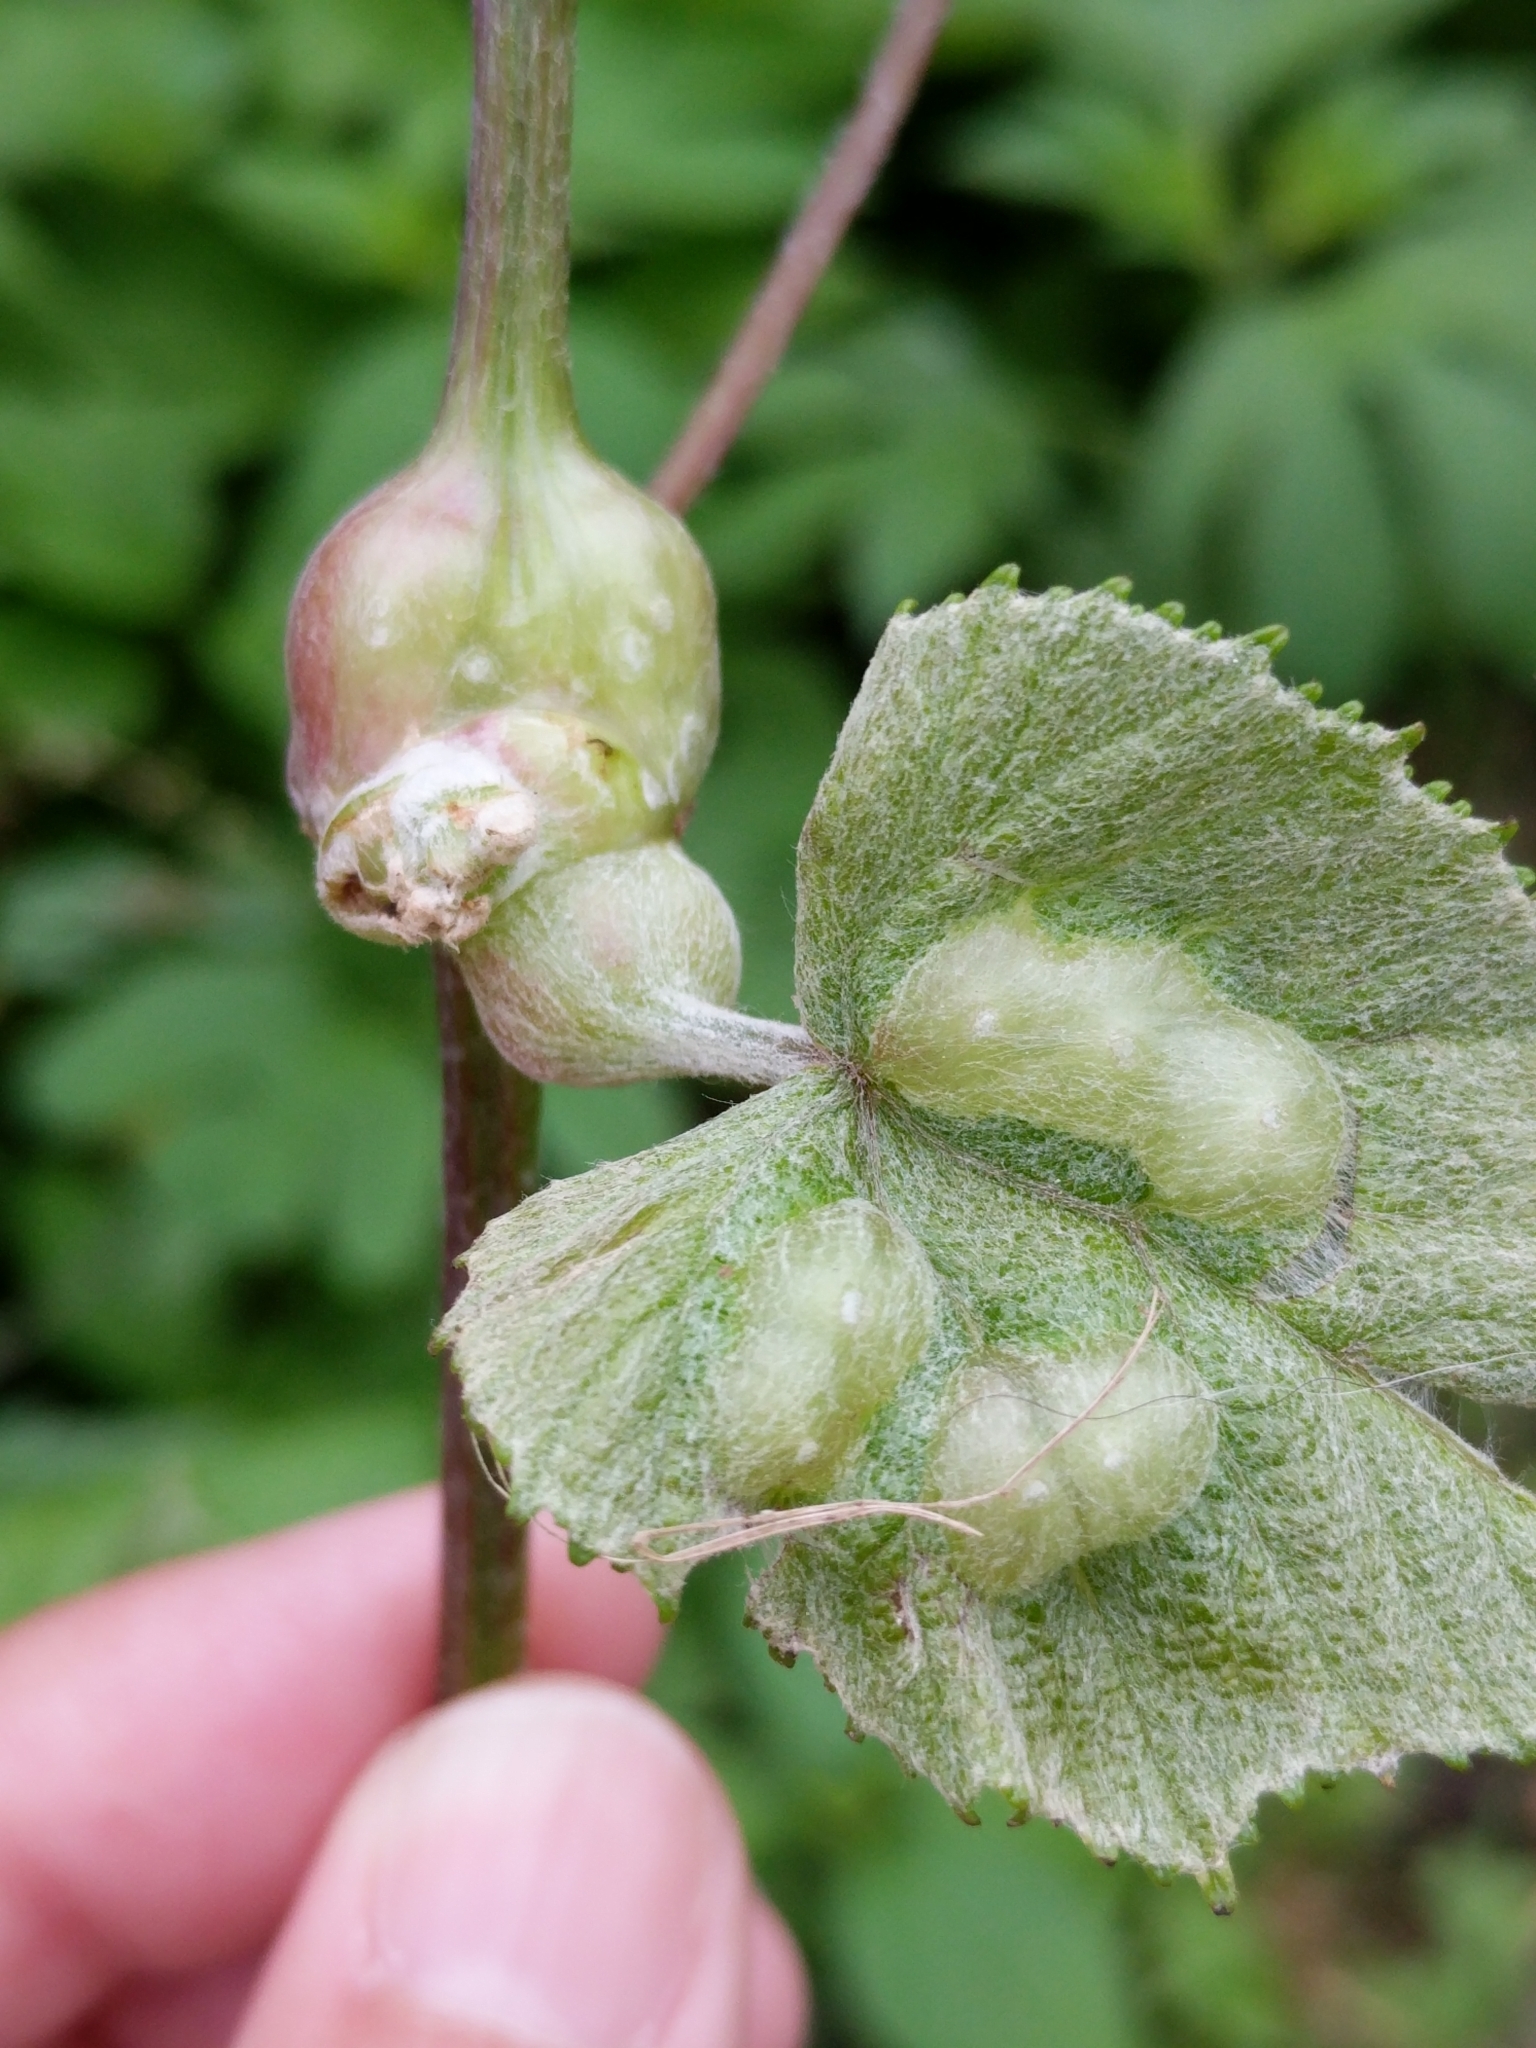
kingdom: Animalia
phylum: Arthropoda
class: Insecta
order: Diptera
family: Cecidomyiidae
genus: Vitisiella
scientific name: Vitisiella brevicauda
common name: Grape tumid gallmaker midge
